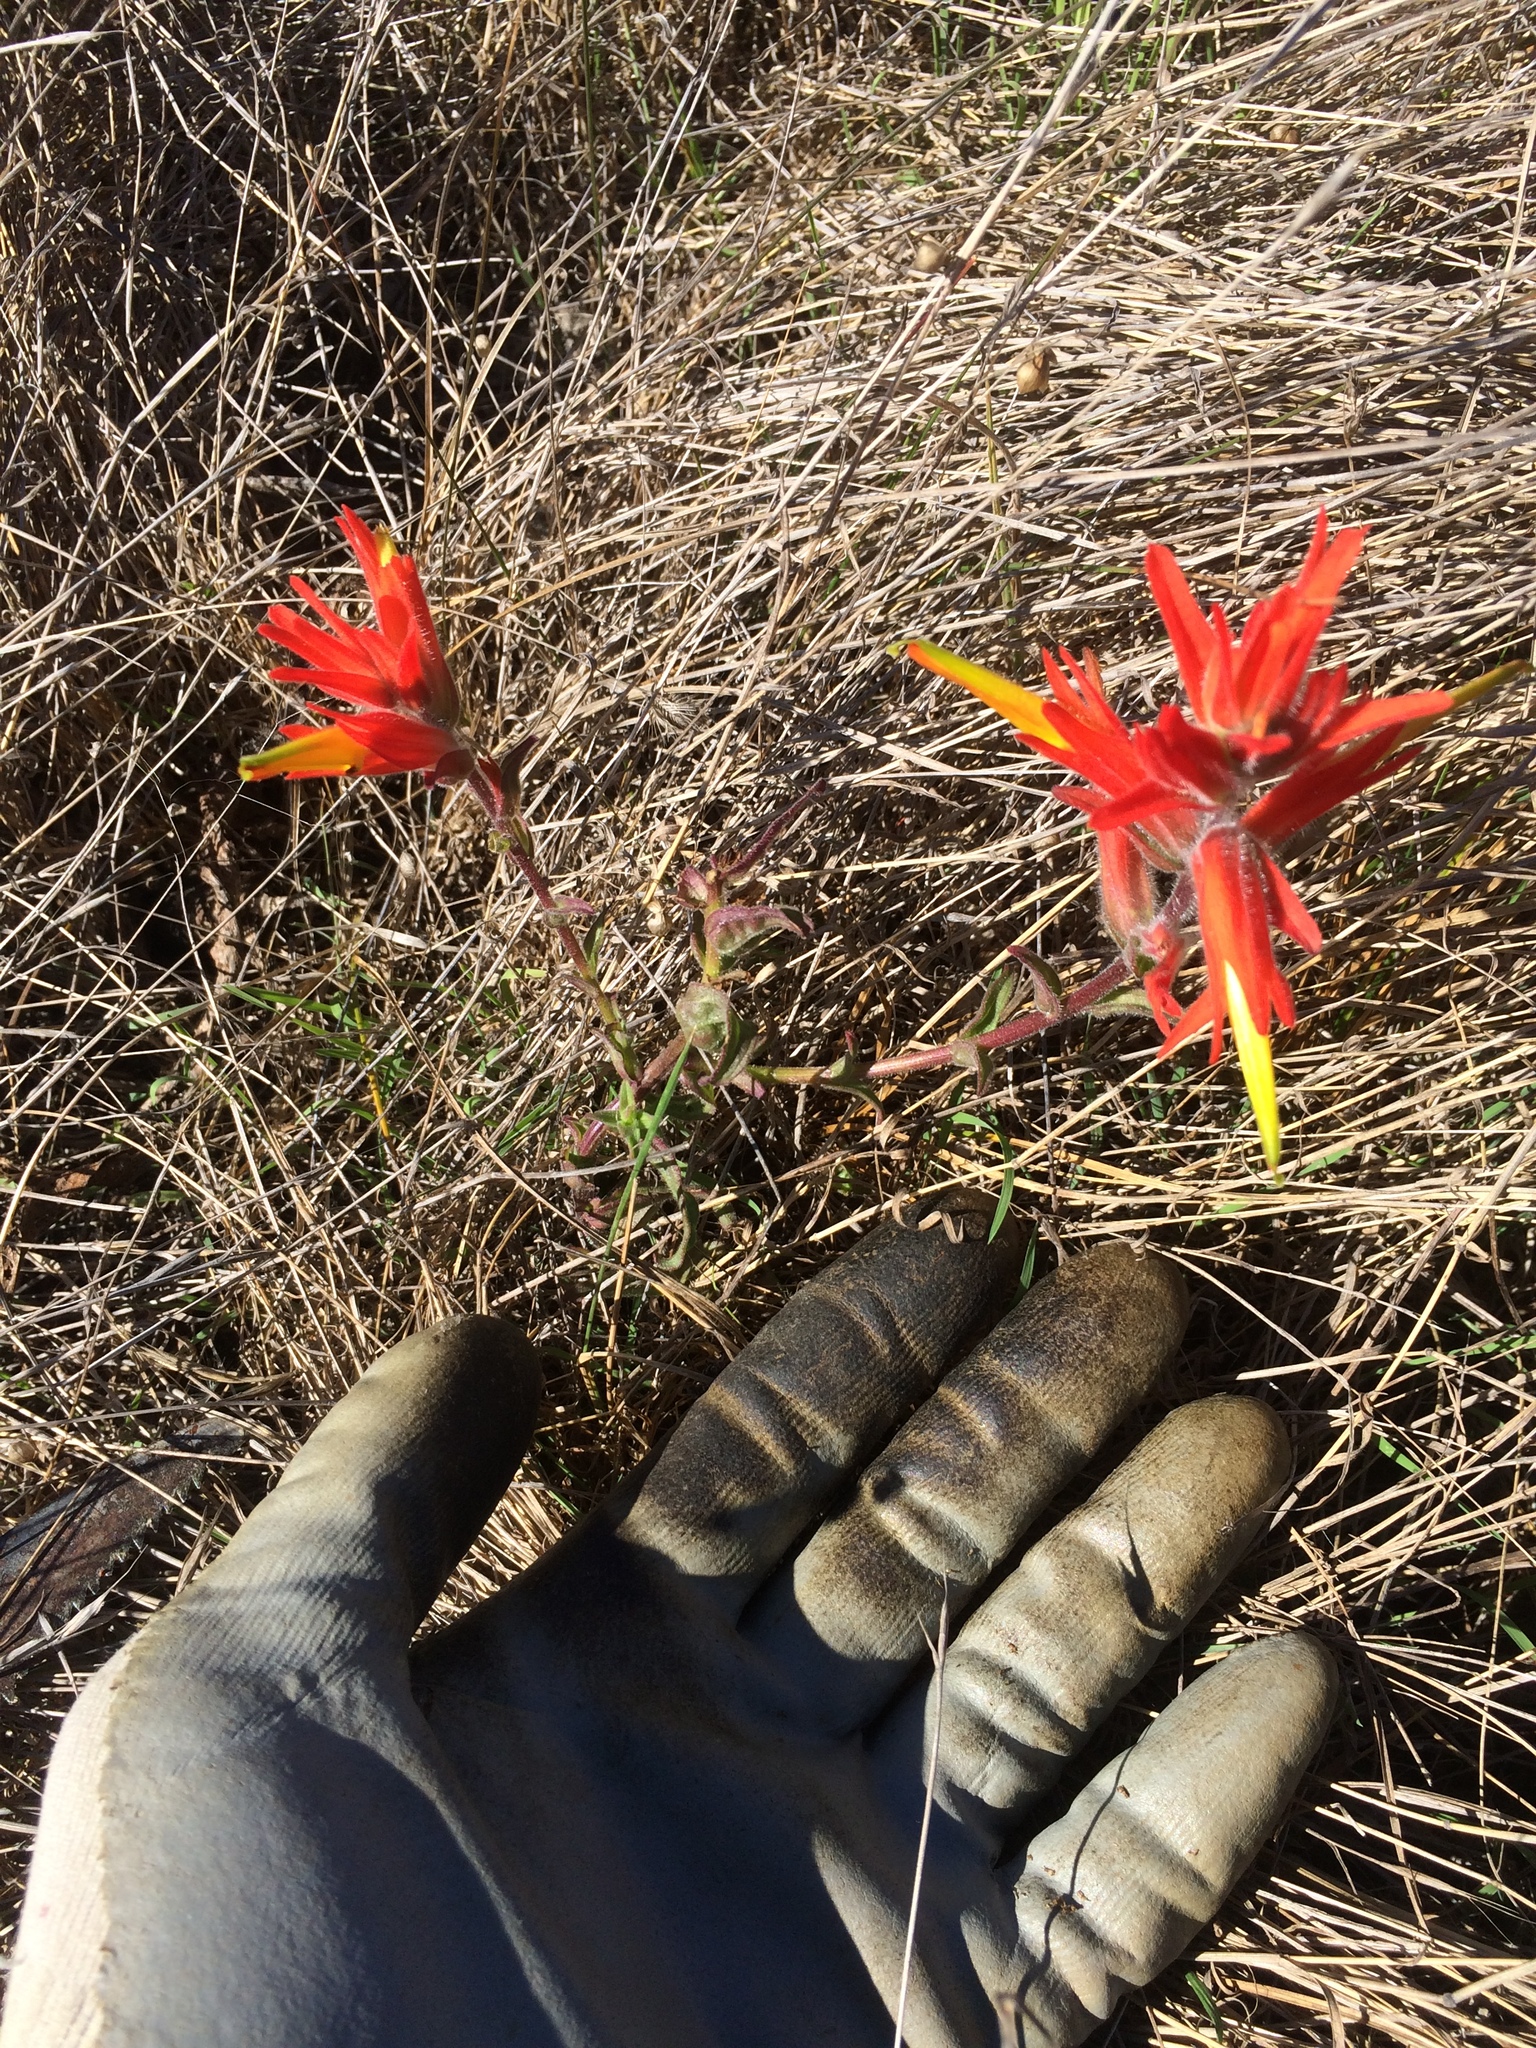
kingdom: Plantae
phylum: Tracheophyta
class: Magnoliopsida
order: Lamiales
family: Orobanchaceae
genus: Castilleja
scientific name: Castilleja subinclusa
